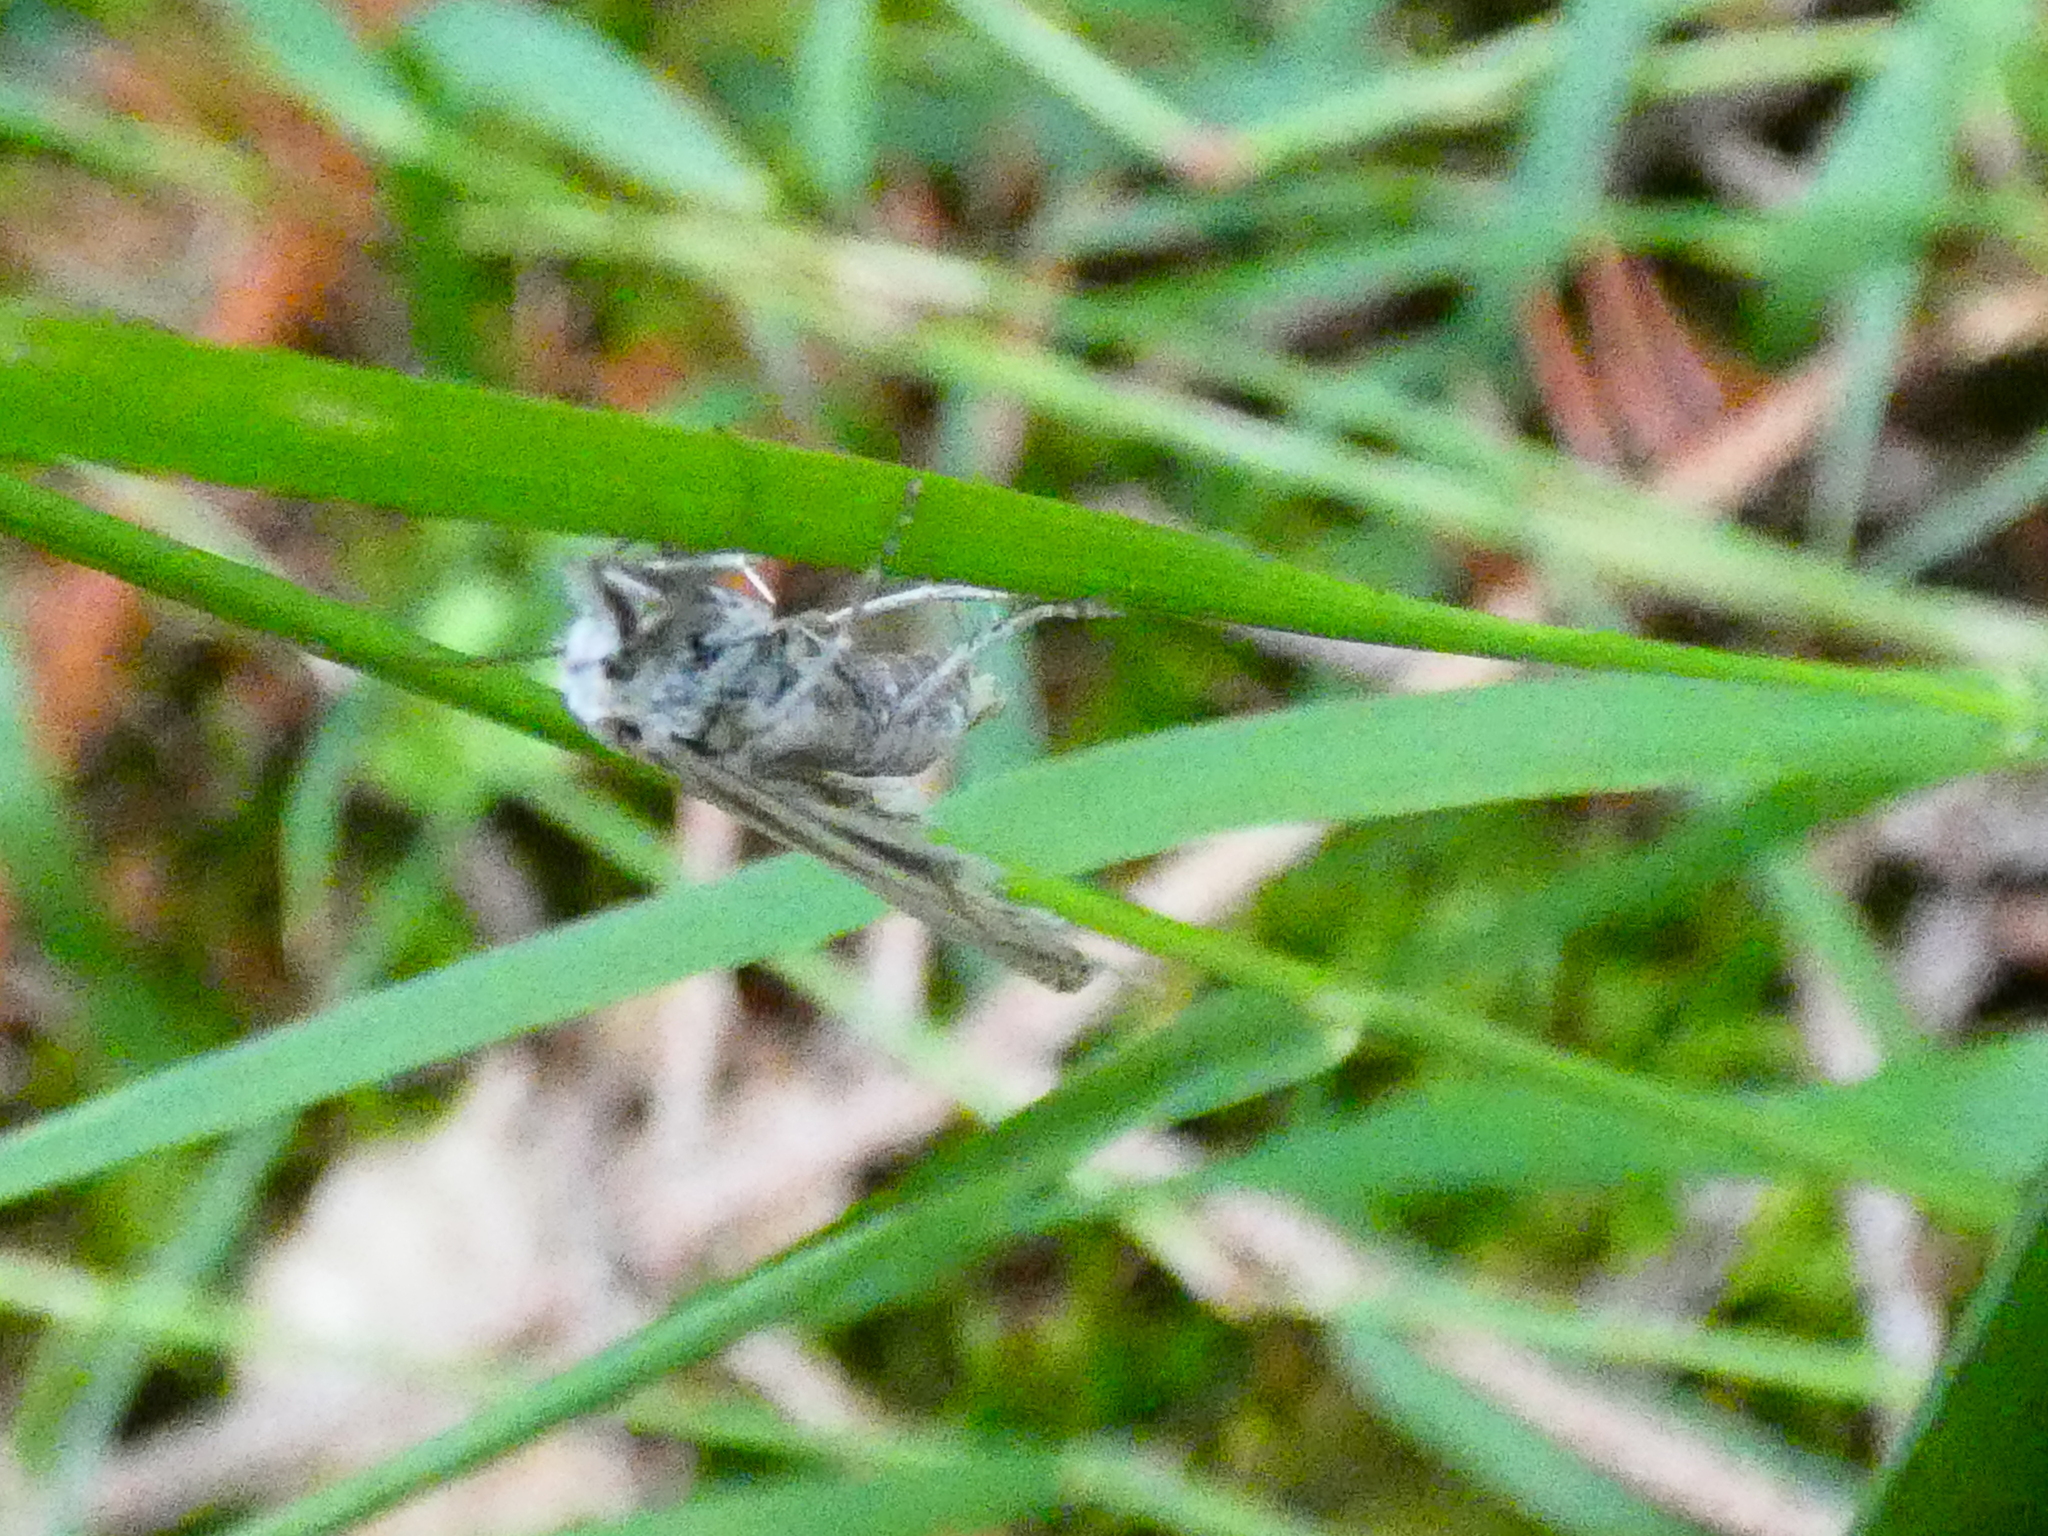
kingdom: Animalia
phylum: Arthropoda
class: Insecta
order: Lepidoptera
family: Crambidae
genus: Catoptria
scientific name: Catoptria margaritellus
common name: Pearl-band grass veneer
